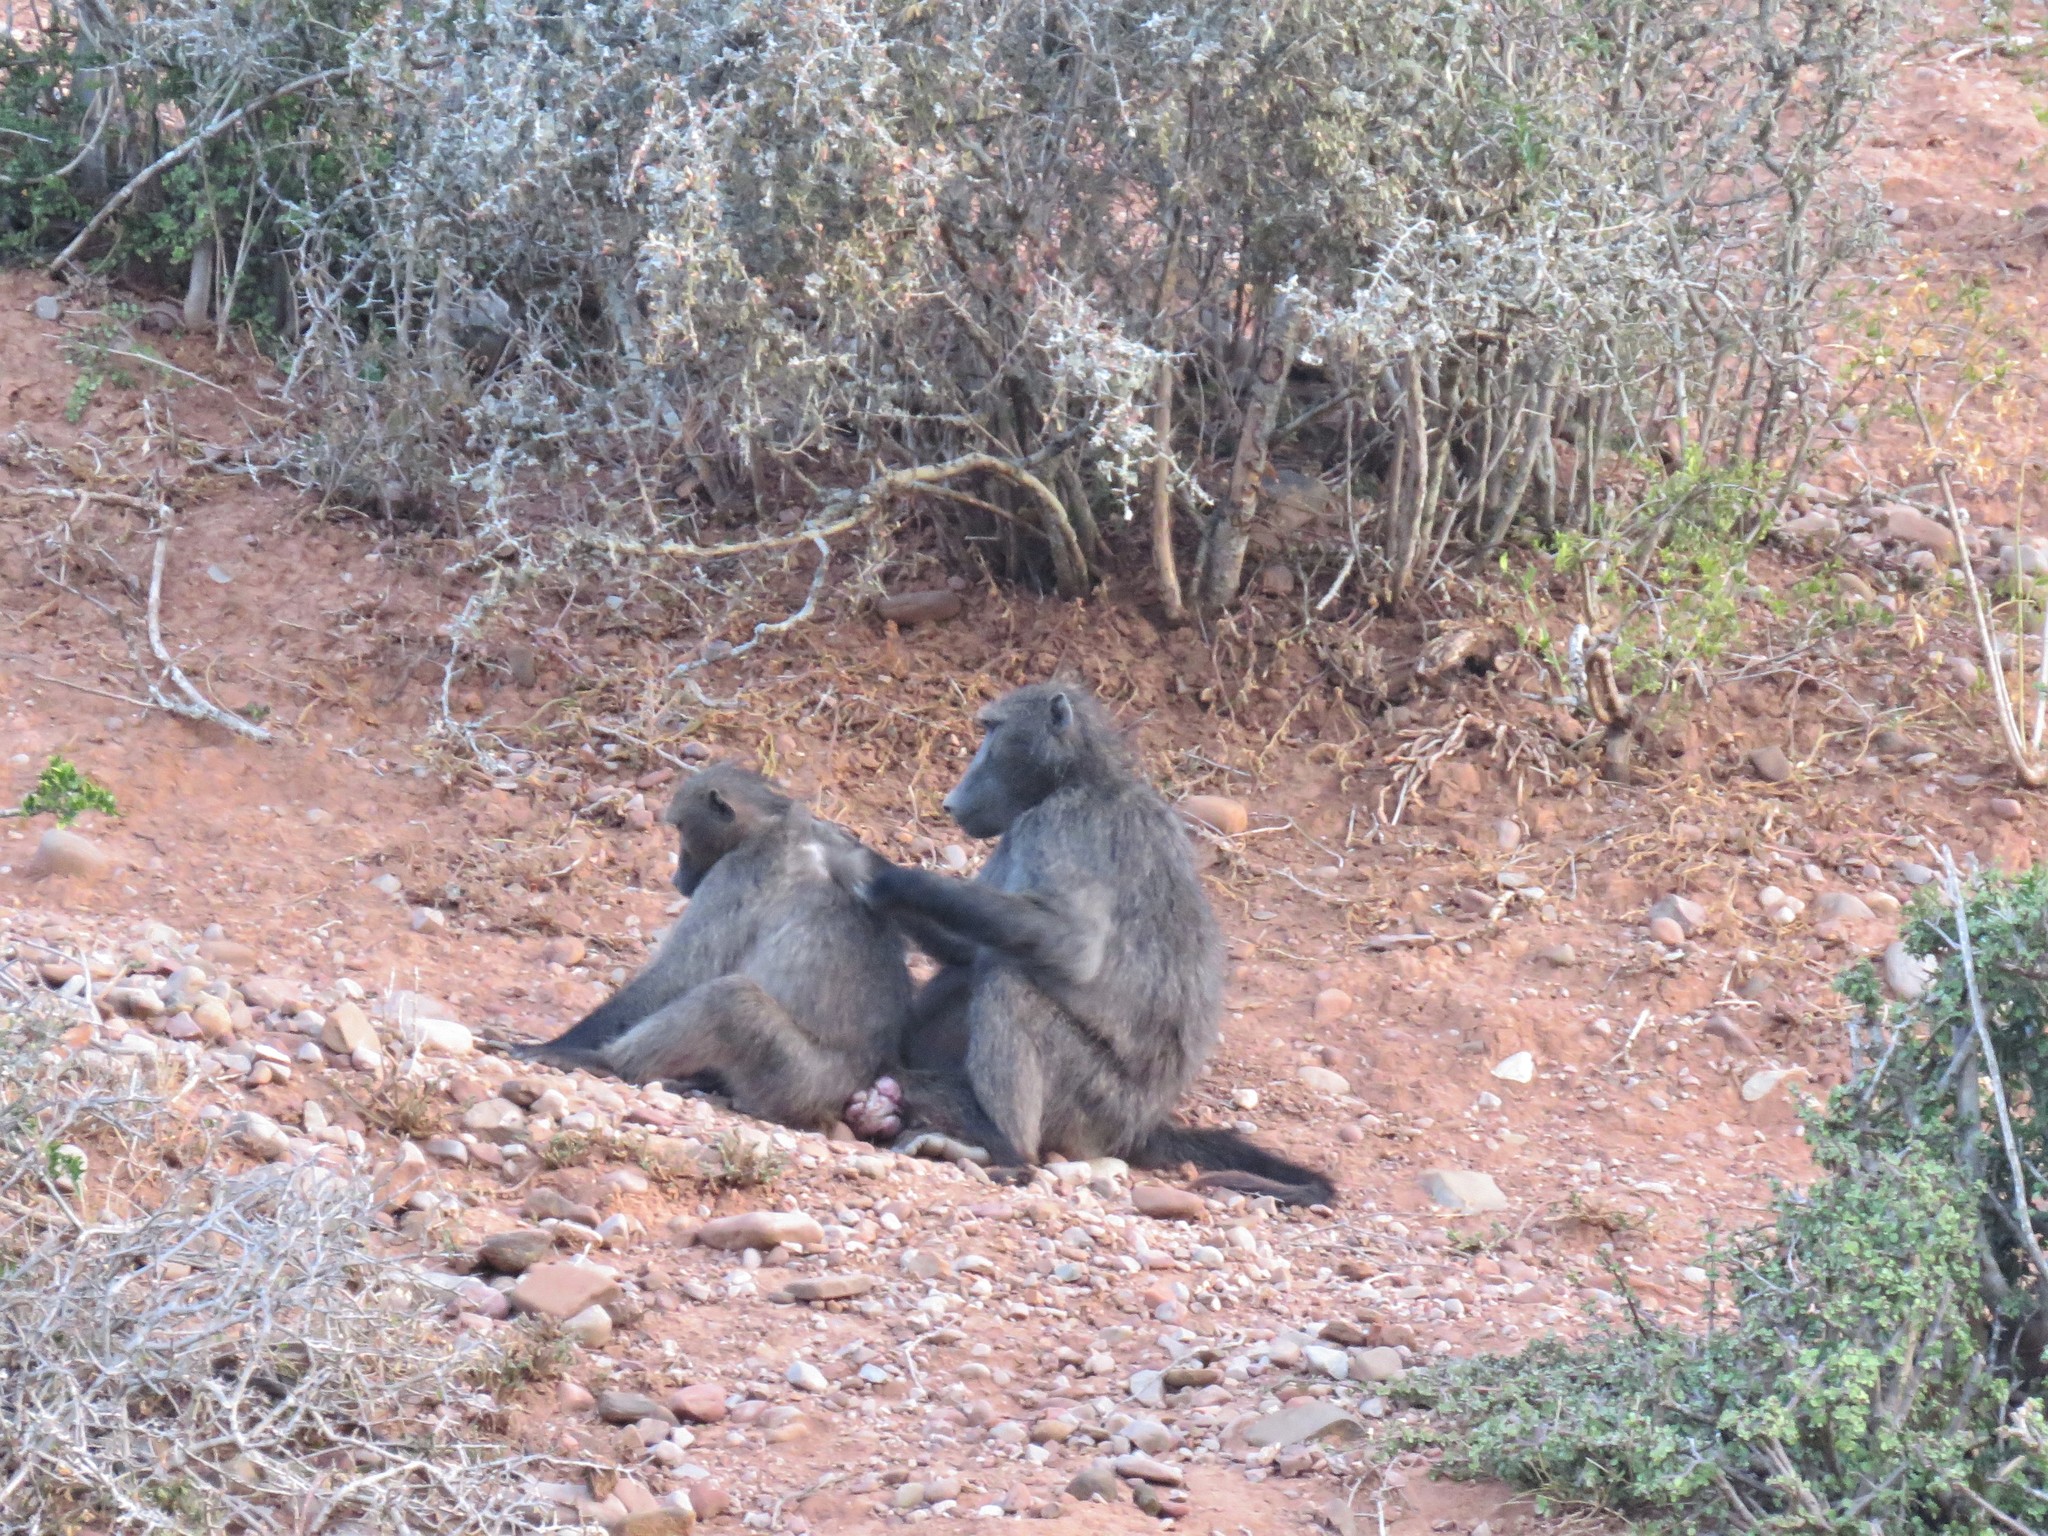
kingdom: Animalia
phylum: Chordata
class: Mammalia
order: Primates
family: Cercopithecidae
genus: Papio
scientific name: Papio ursinus
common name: Chacma baboon
